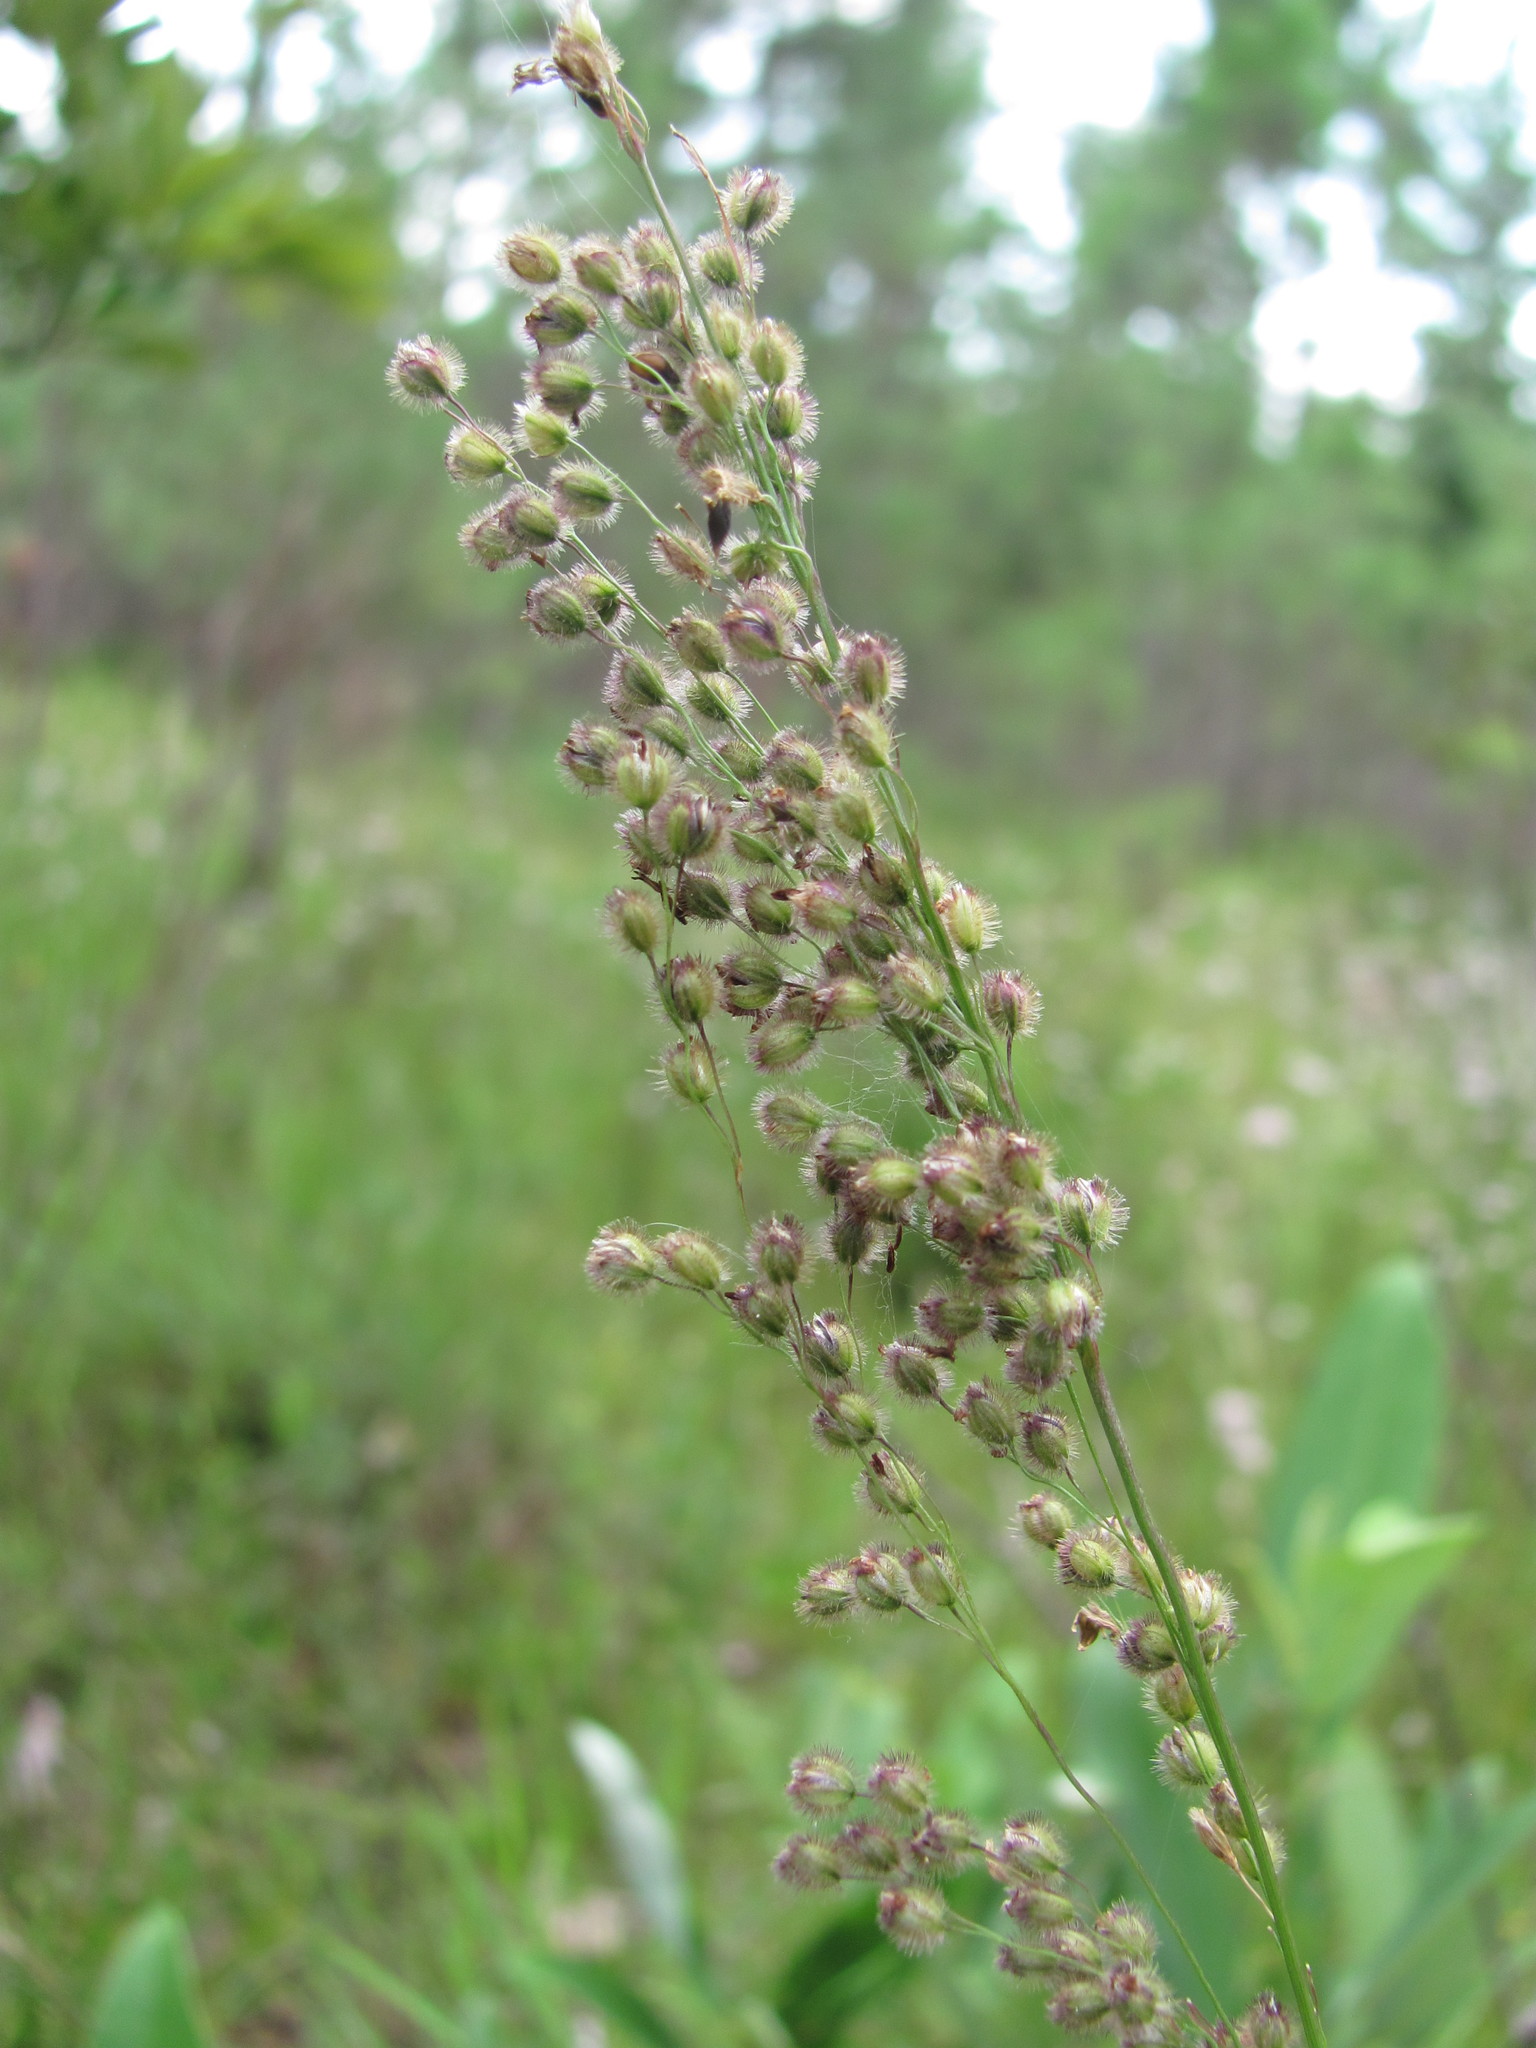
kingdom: Plantae
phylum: Tracheophyta
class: Liliopsida
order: Poales
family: Poaceae
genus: Anthenantia
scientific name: Anthenantia rufa
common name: Purple silkyscale
